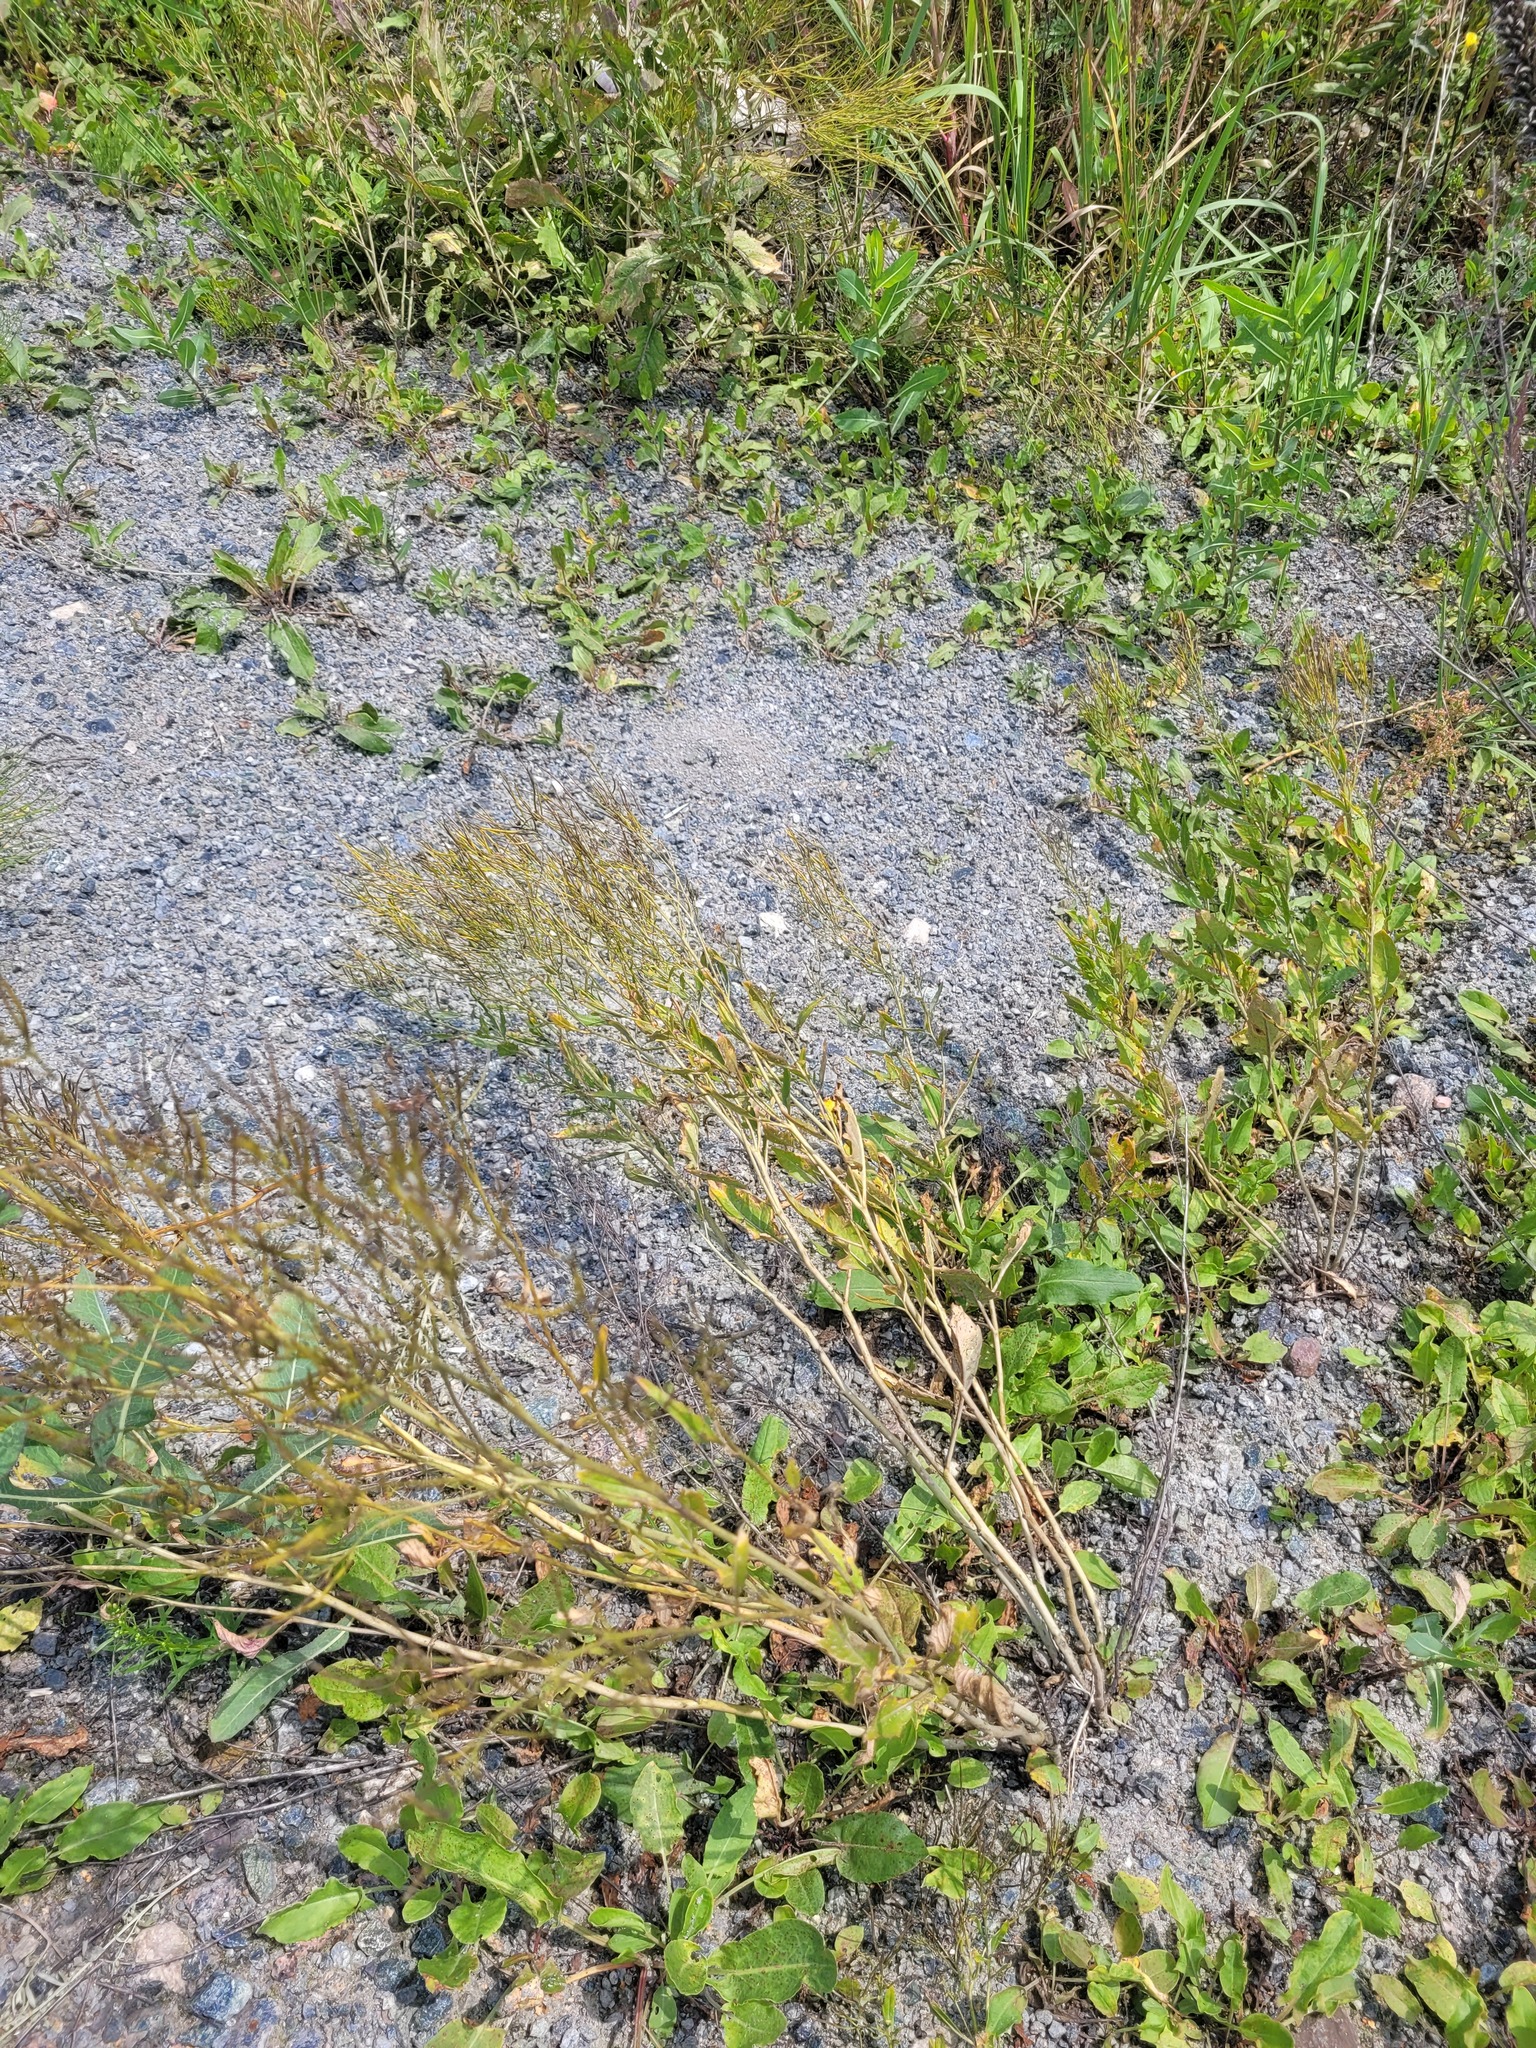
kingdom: Plantae
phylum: Tracheophyta
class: Magnoliopsida
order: Brassicales
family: Brassicaceae
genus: Sisymbrium
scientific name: Sisymbrium volgense
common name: Russian mustard
